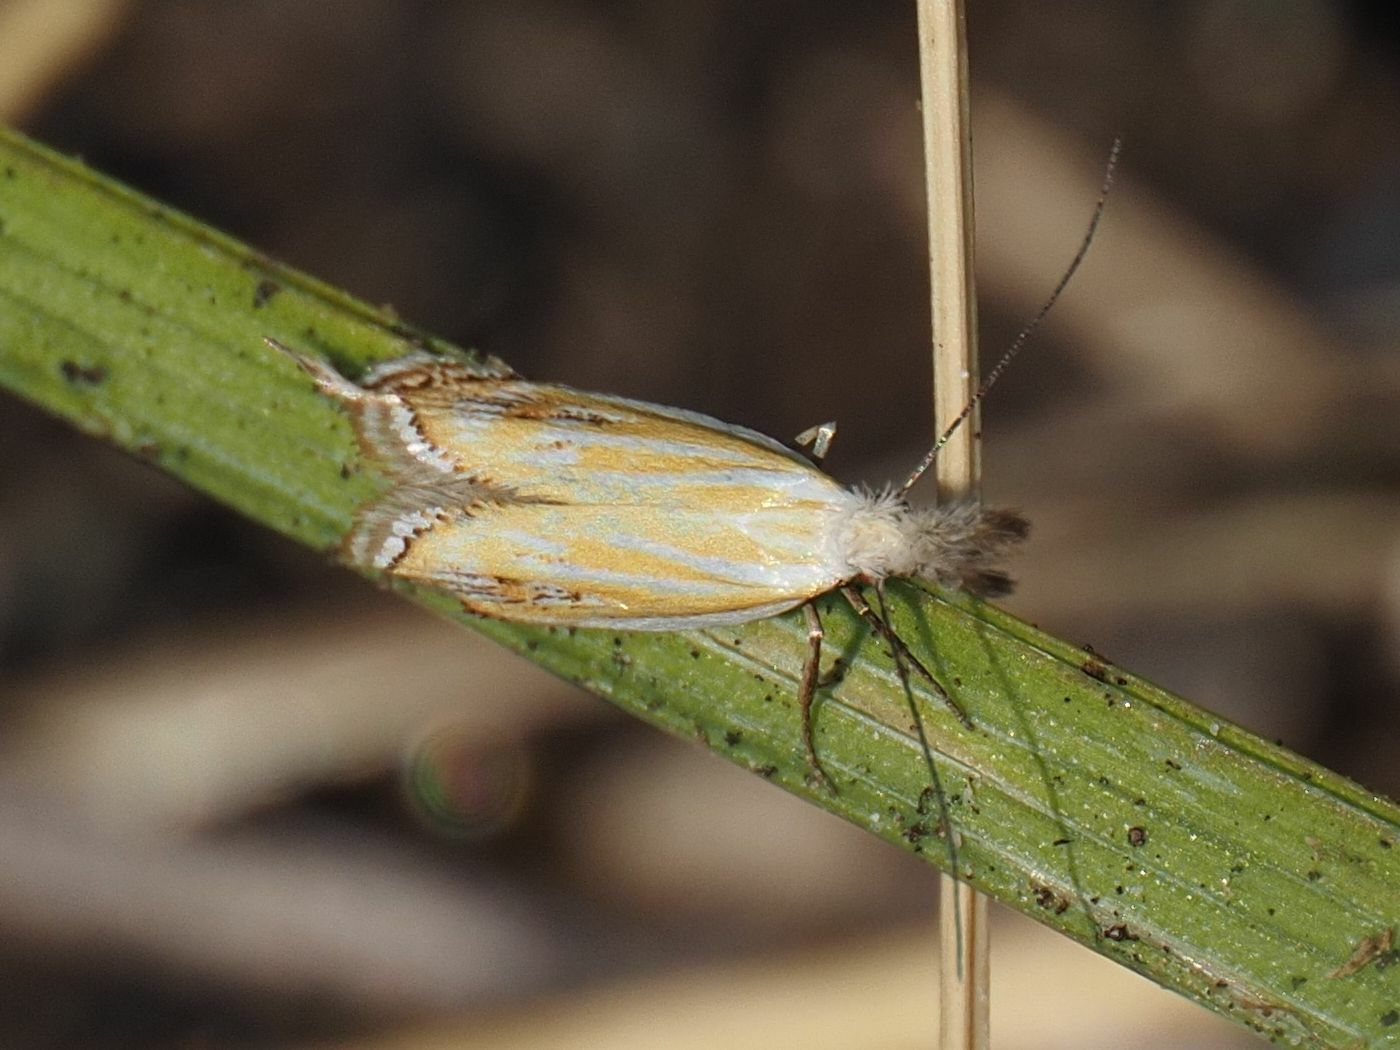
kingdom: Animalia
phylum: Arthropoda
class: Insecta
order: Lepidoptera
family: Oecophoridae
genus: Pleurota
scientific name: Pleurota huebneri
